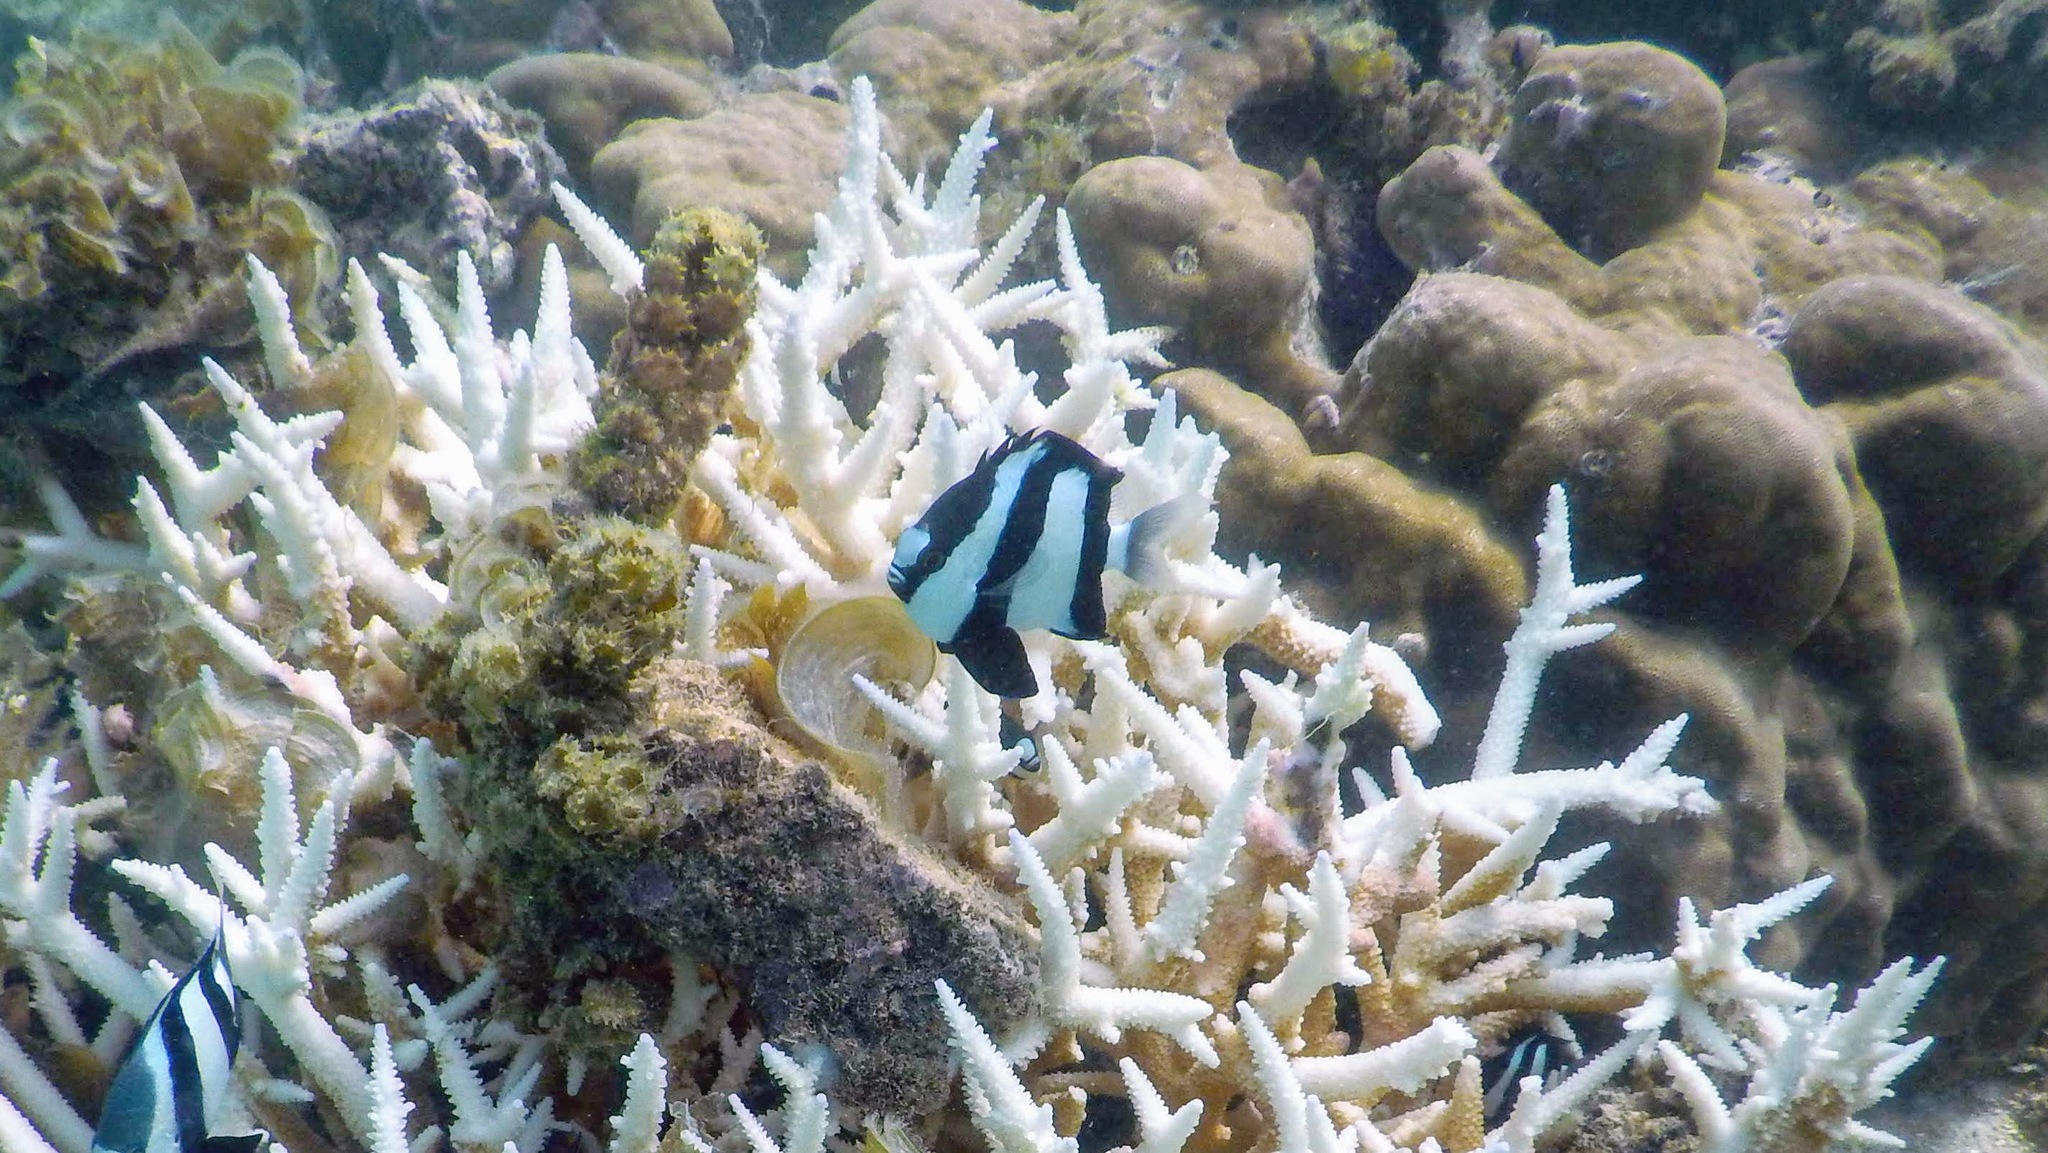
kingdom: Animalia
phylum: Chordata
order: Perciformes
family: Pomacentridae
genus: Dascyllus
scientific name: Dascyllus abudafur
